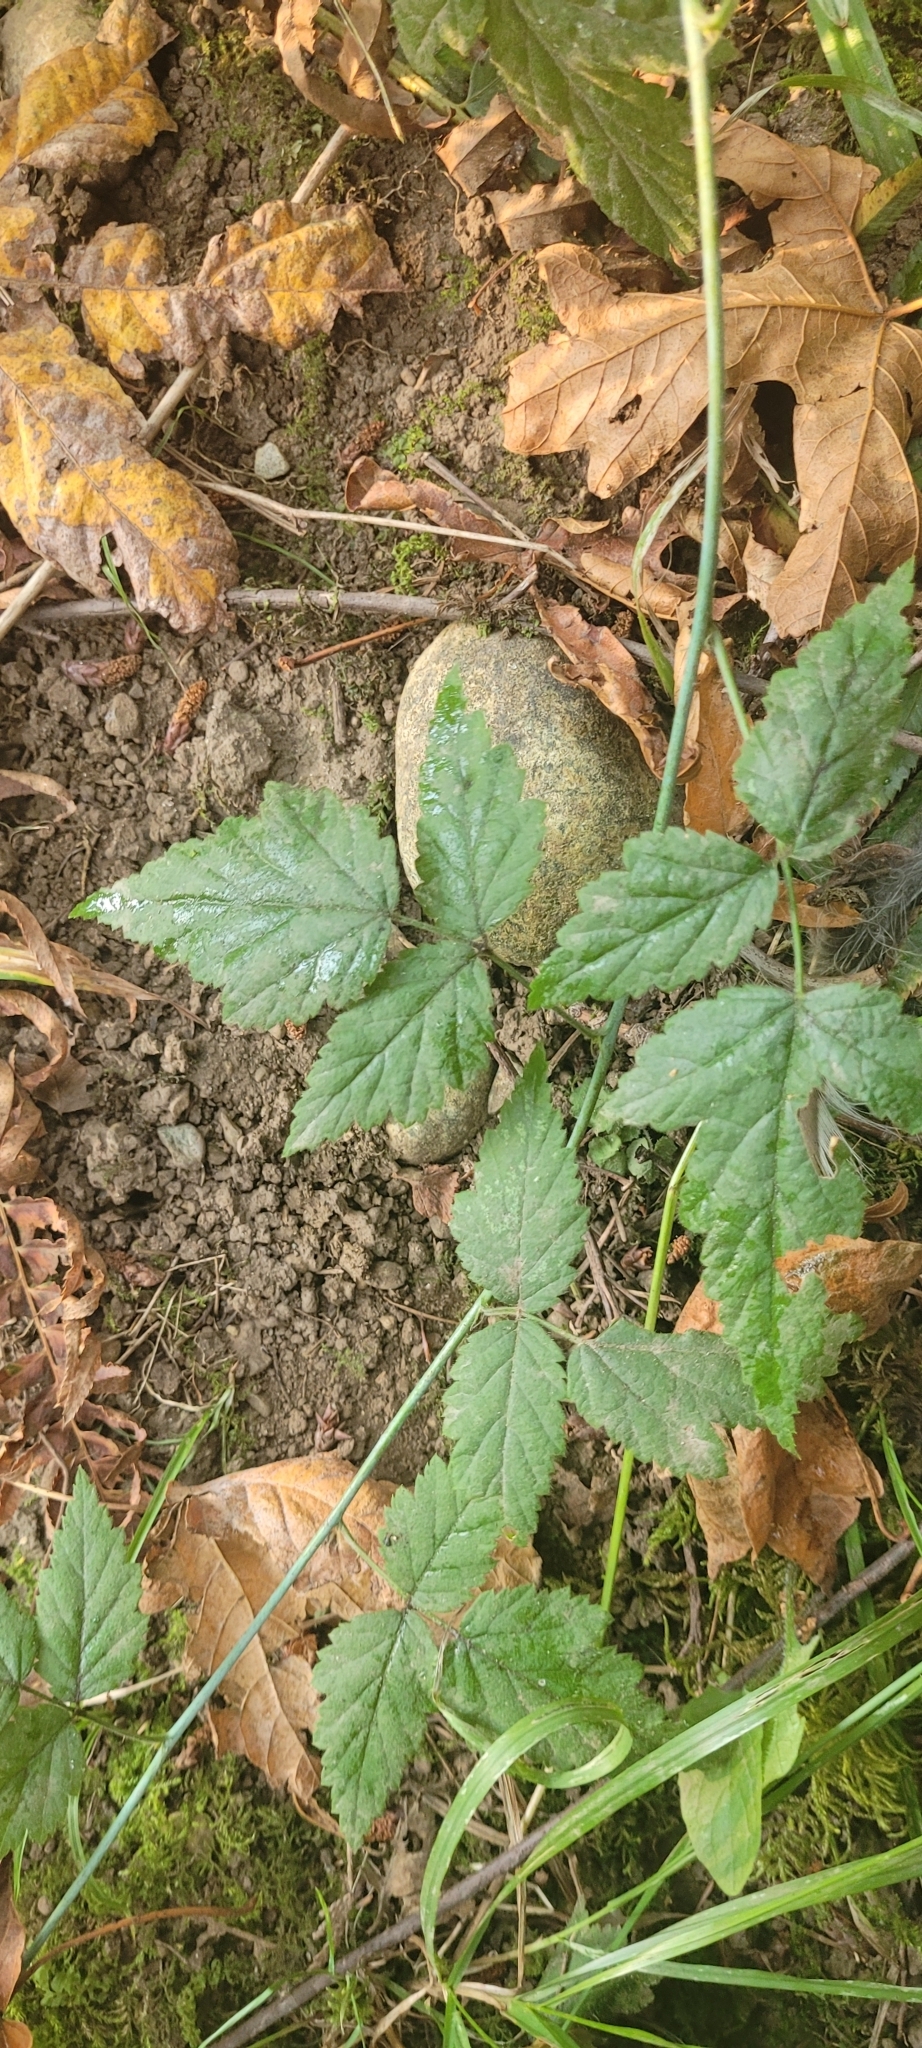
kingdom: Plantae
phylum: Tracheophyta
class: Magnoliopsida
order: Rosales
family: Rosaceae
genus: Rubus
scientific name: Rubus ursinus
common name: Pacific blackberry
